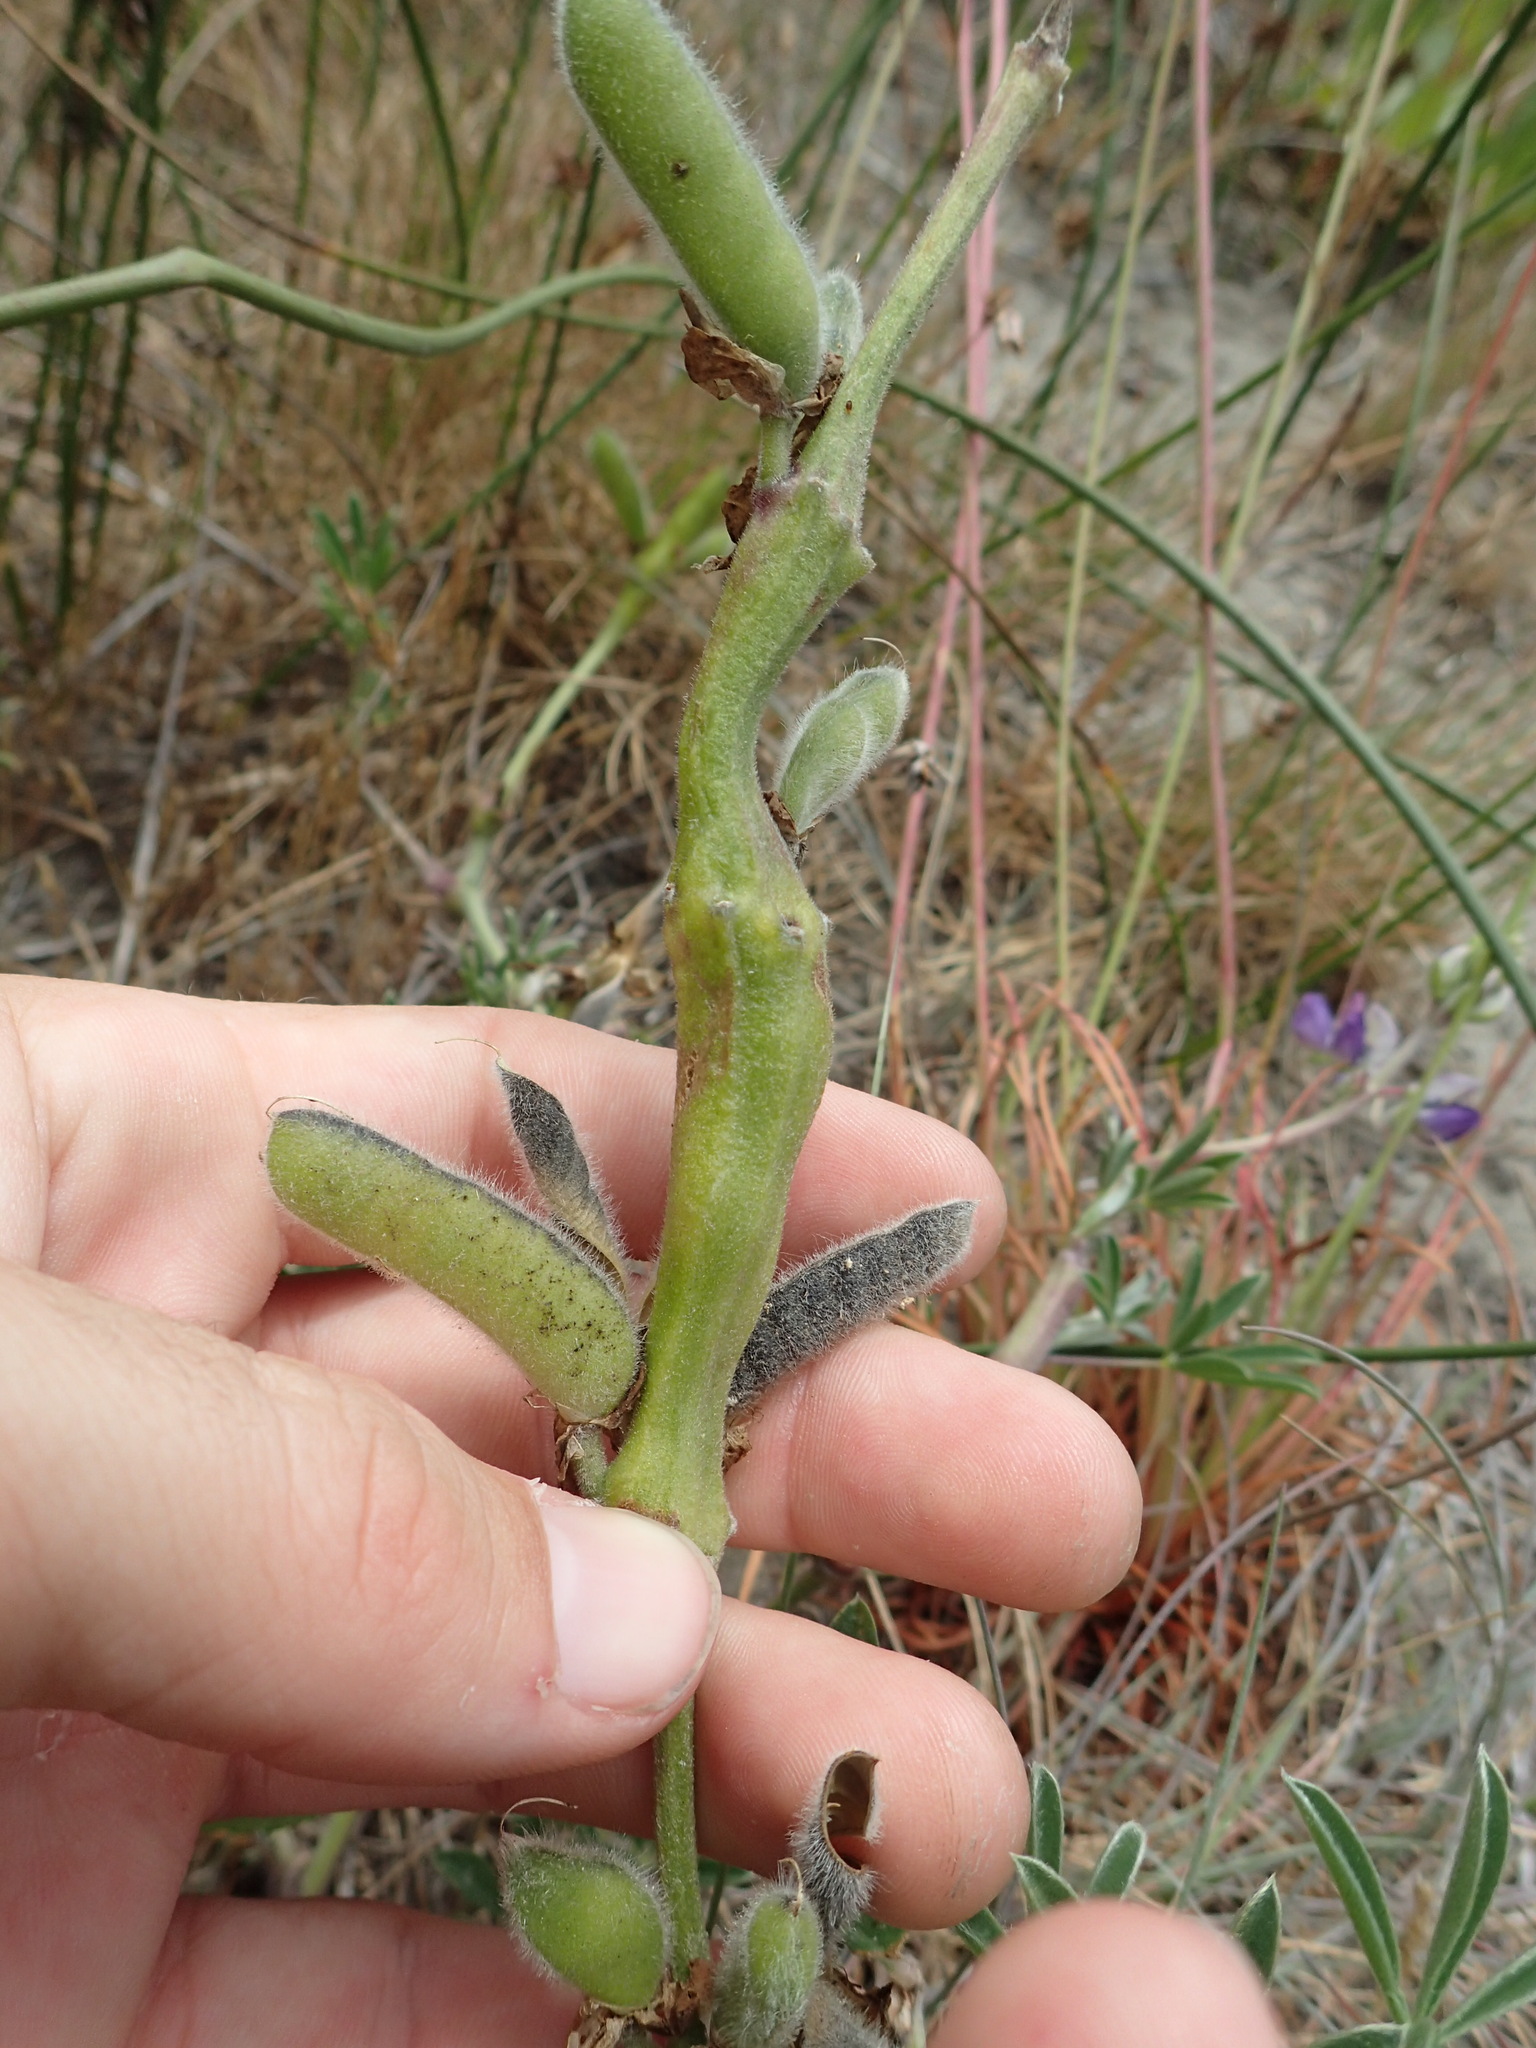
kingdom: Animalia
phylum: Arthropoda
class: Insecta
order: Diptera
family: Cecidomyiidae
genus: Neolasioptera
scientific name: Neolasioptera lupini
